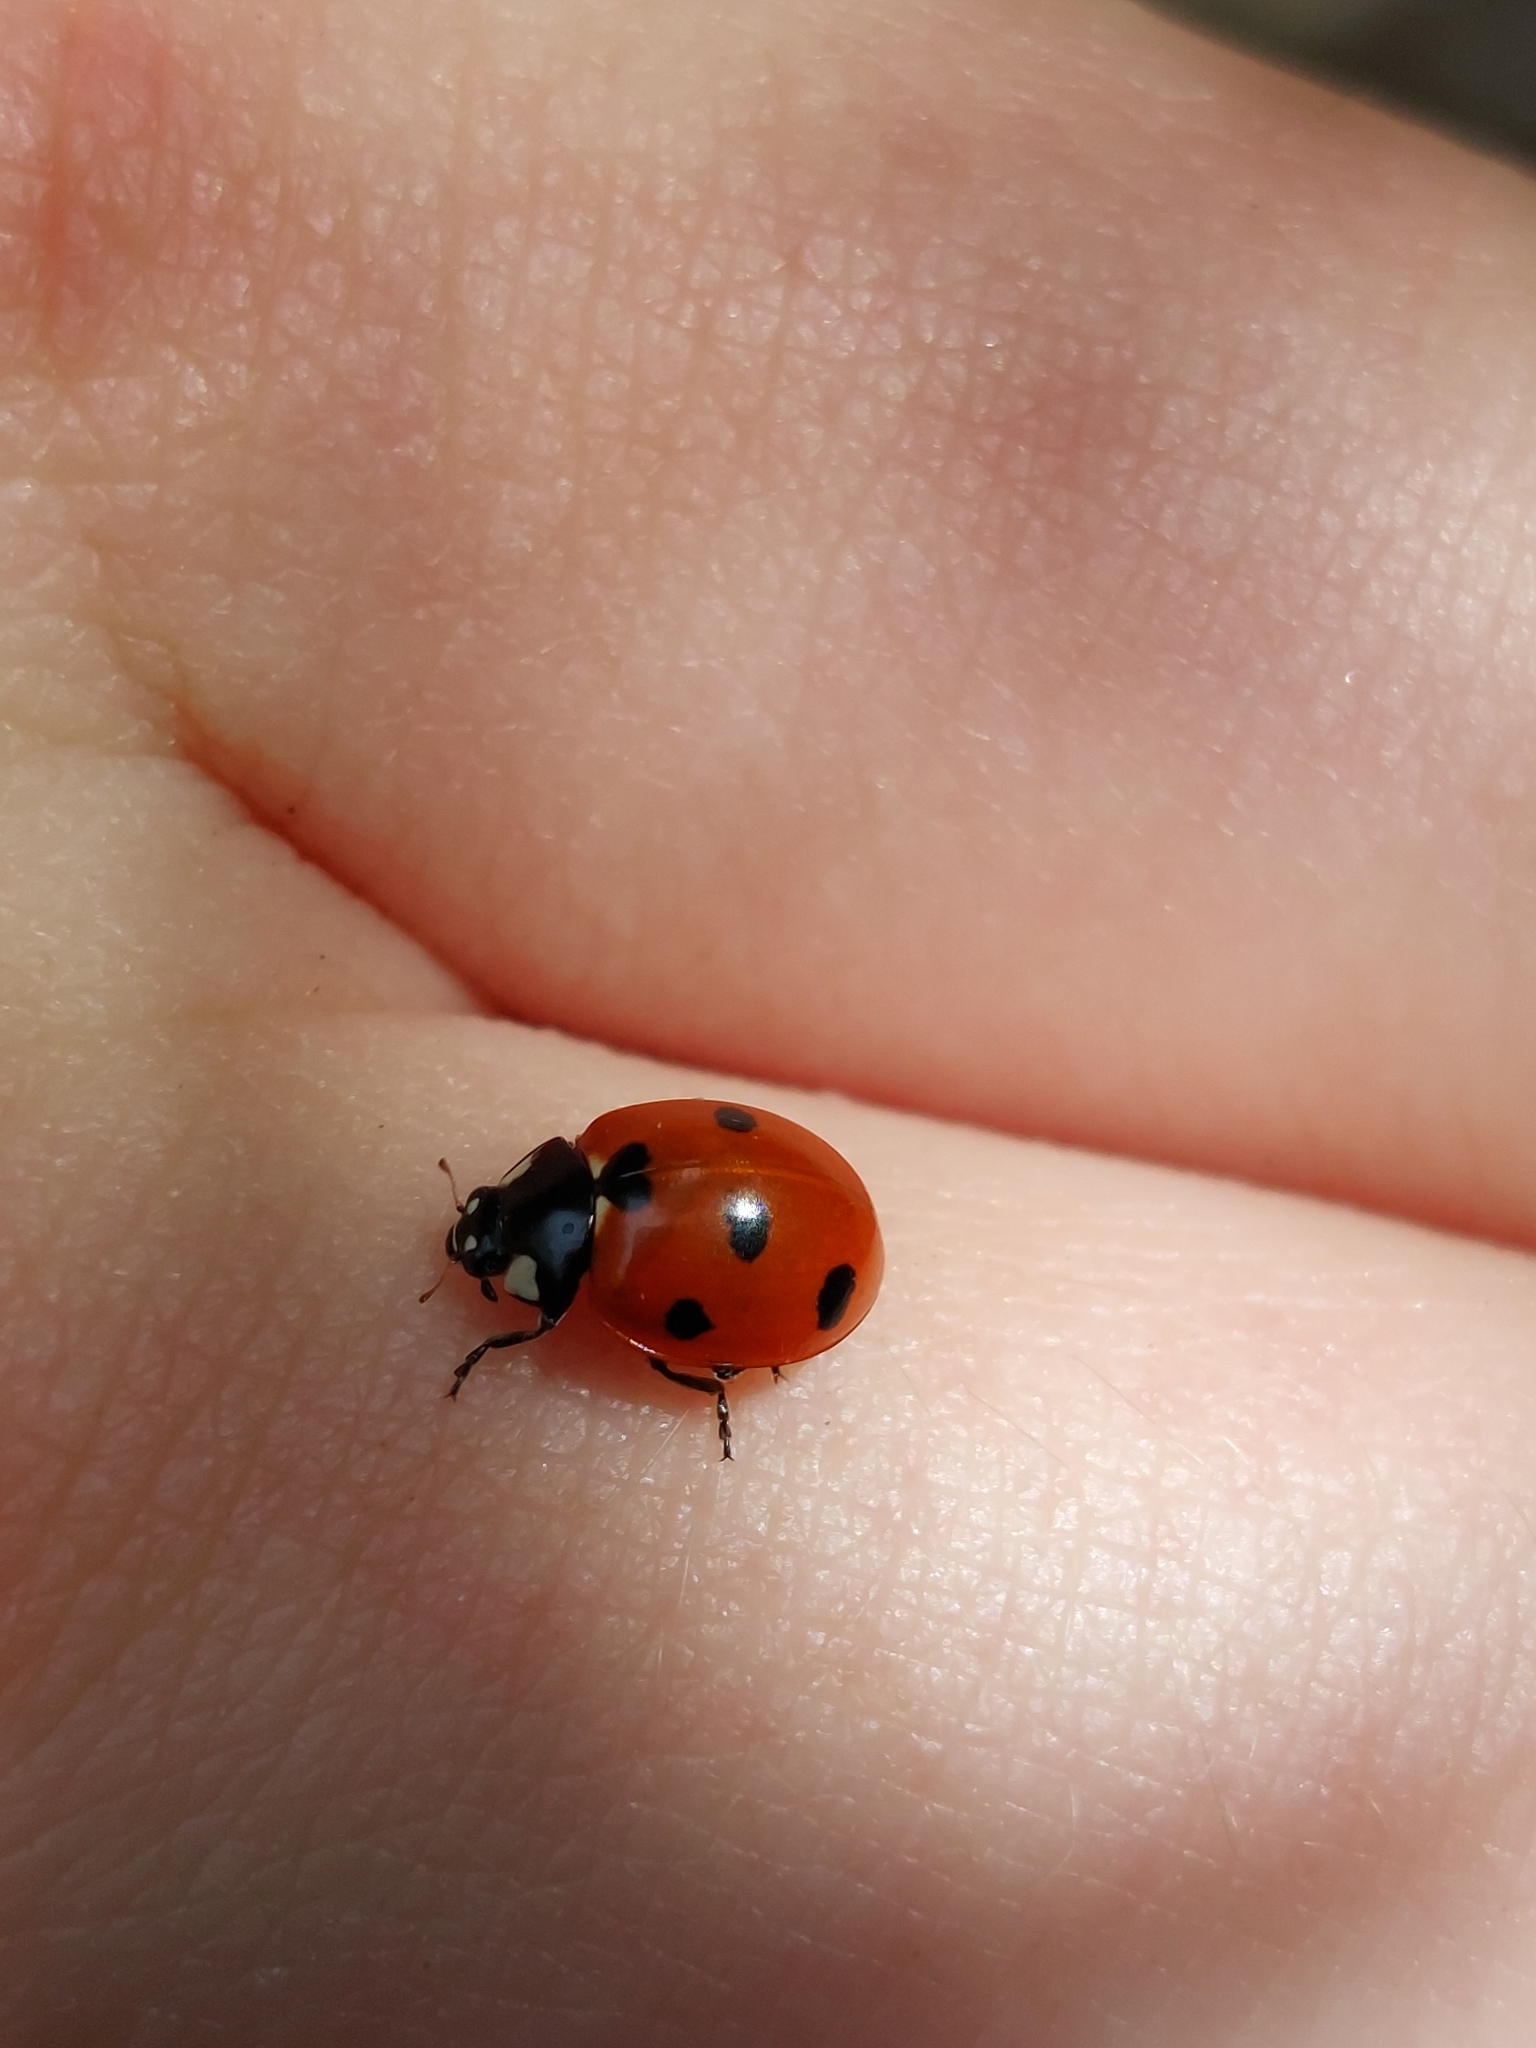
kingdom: Animalia
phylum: Arthropoda
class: Insecta
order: Coleoptera
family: Coccinellidae
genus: Coccinella
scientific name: Coccinella algerica
